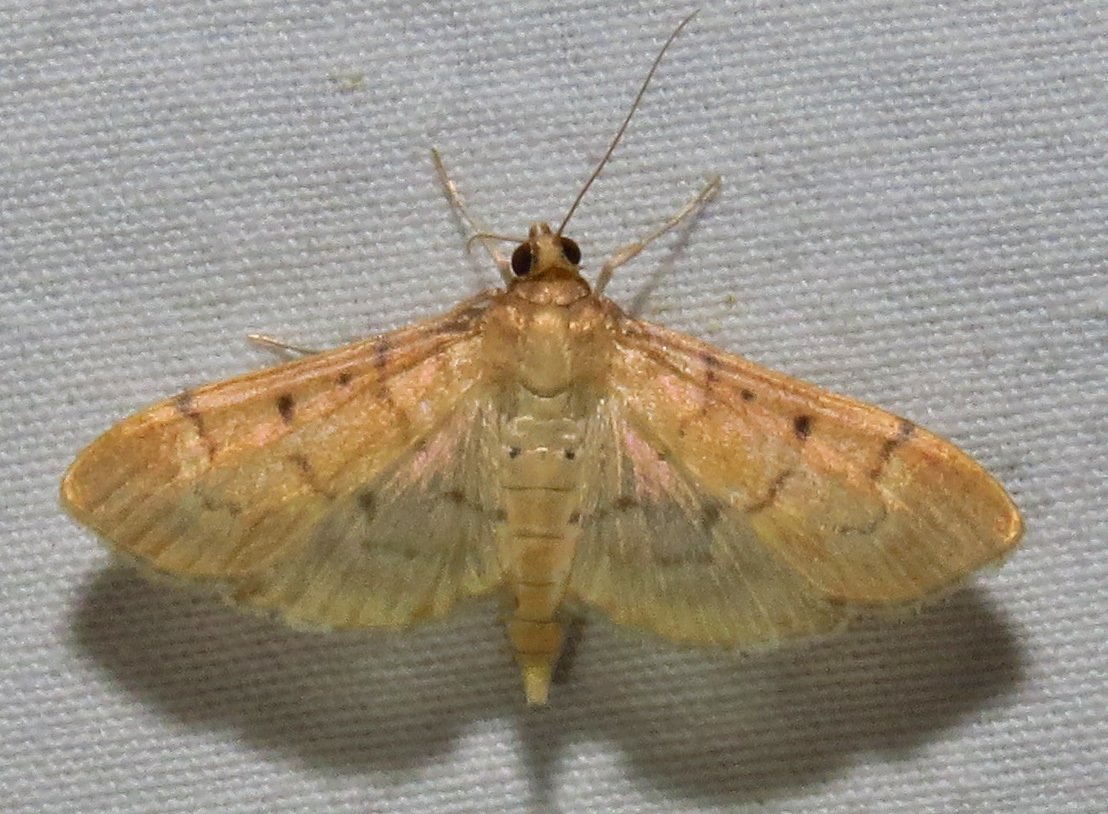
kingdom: Animalia
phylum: Arthropoda
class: Insecta
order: Lepidoptera
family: Crambidae
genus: Herpetogramma
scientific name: Herpetogramma bipunctalis
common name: Southern beet webworm
